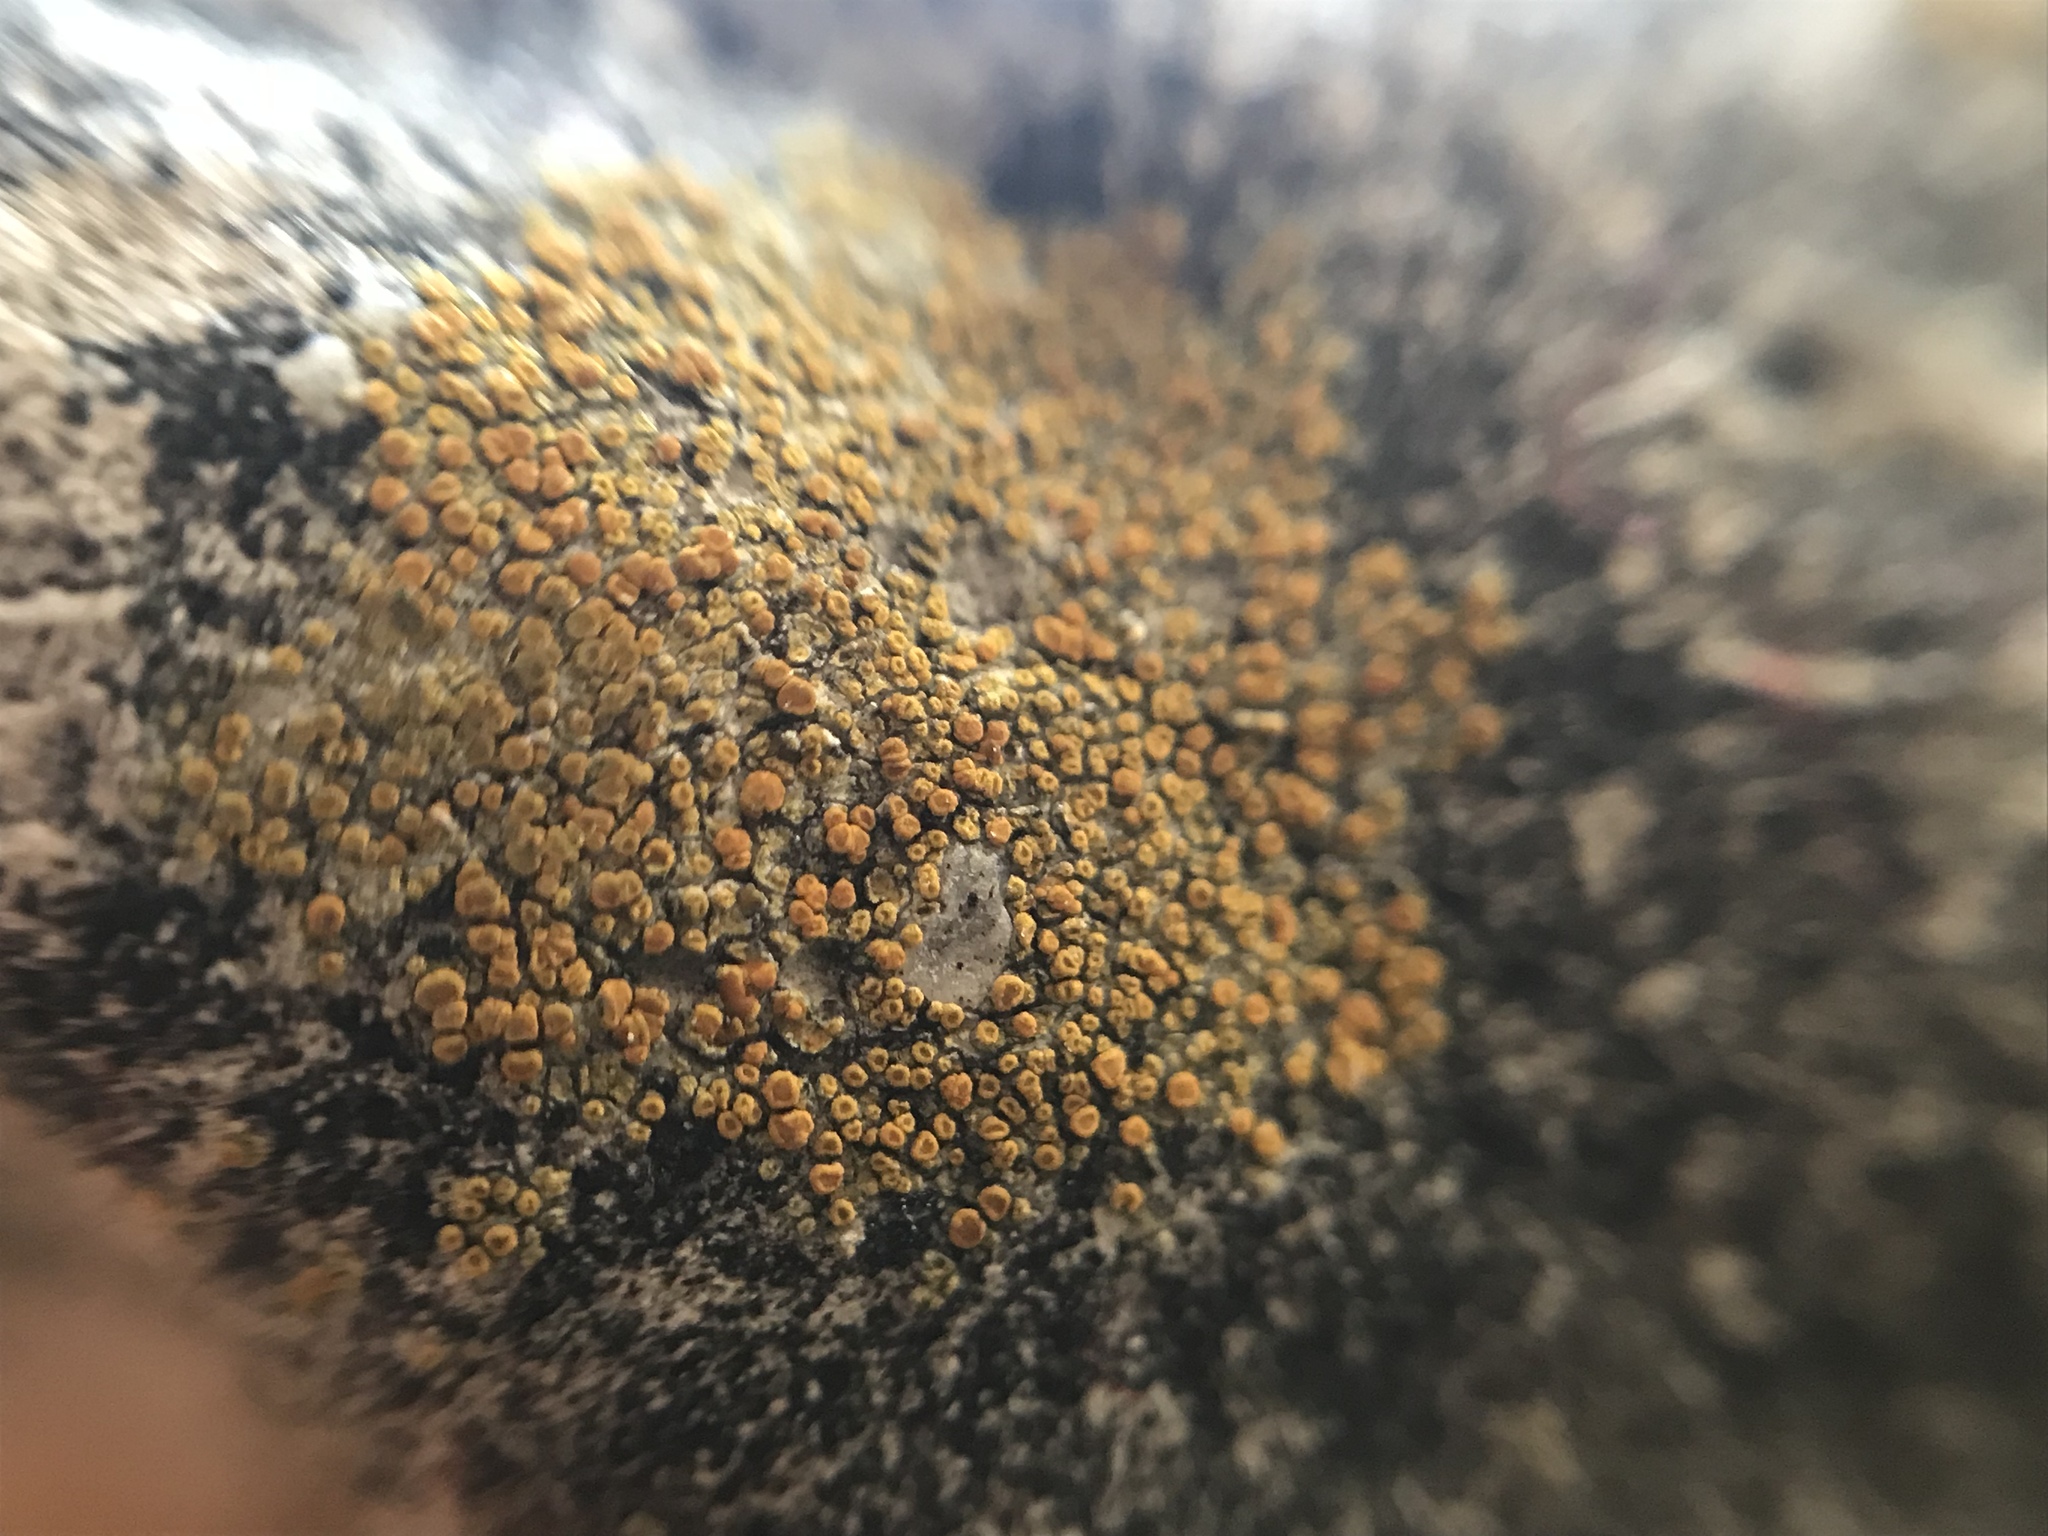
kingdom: Fungi
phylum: Ascomycota
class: Lecanoromycetes
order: Teloschistales
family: Teloschistaceae
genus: Xanthocarpia
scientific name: Xanthocarpia feracissima
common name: Sidewalk firedot
